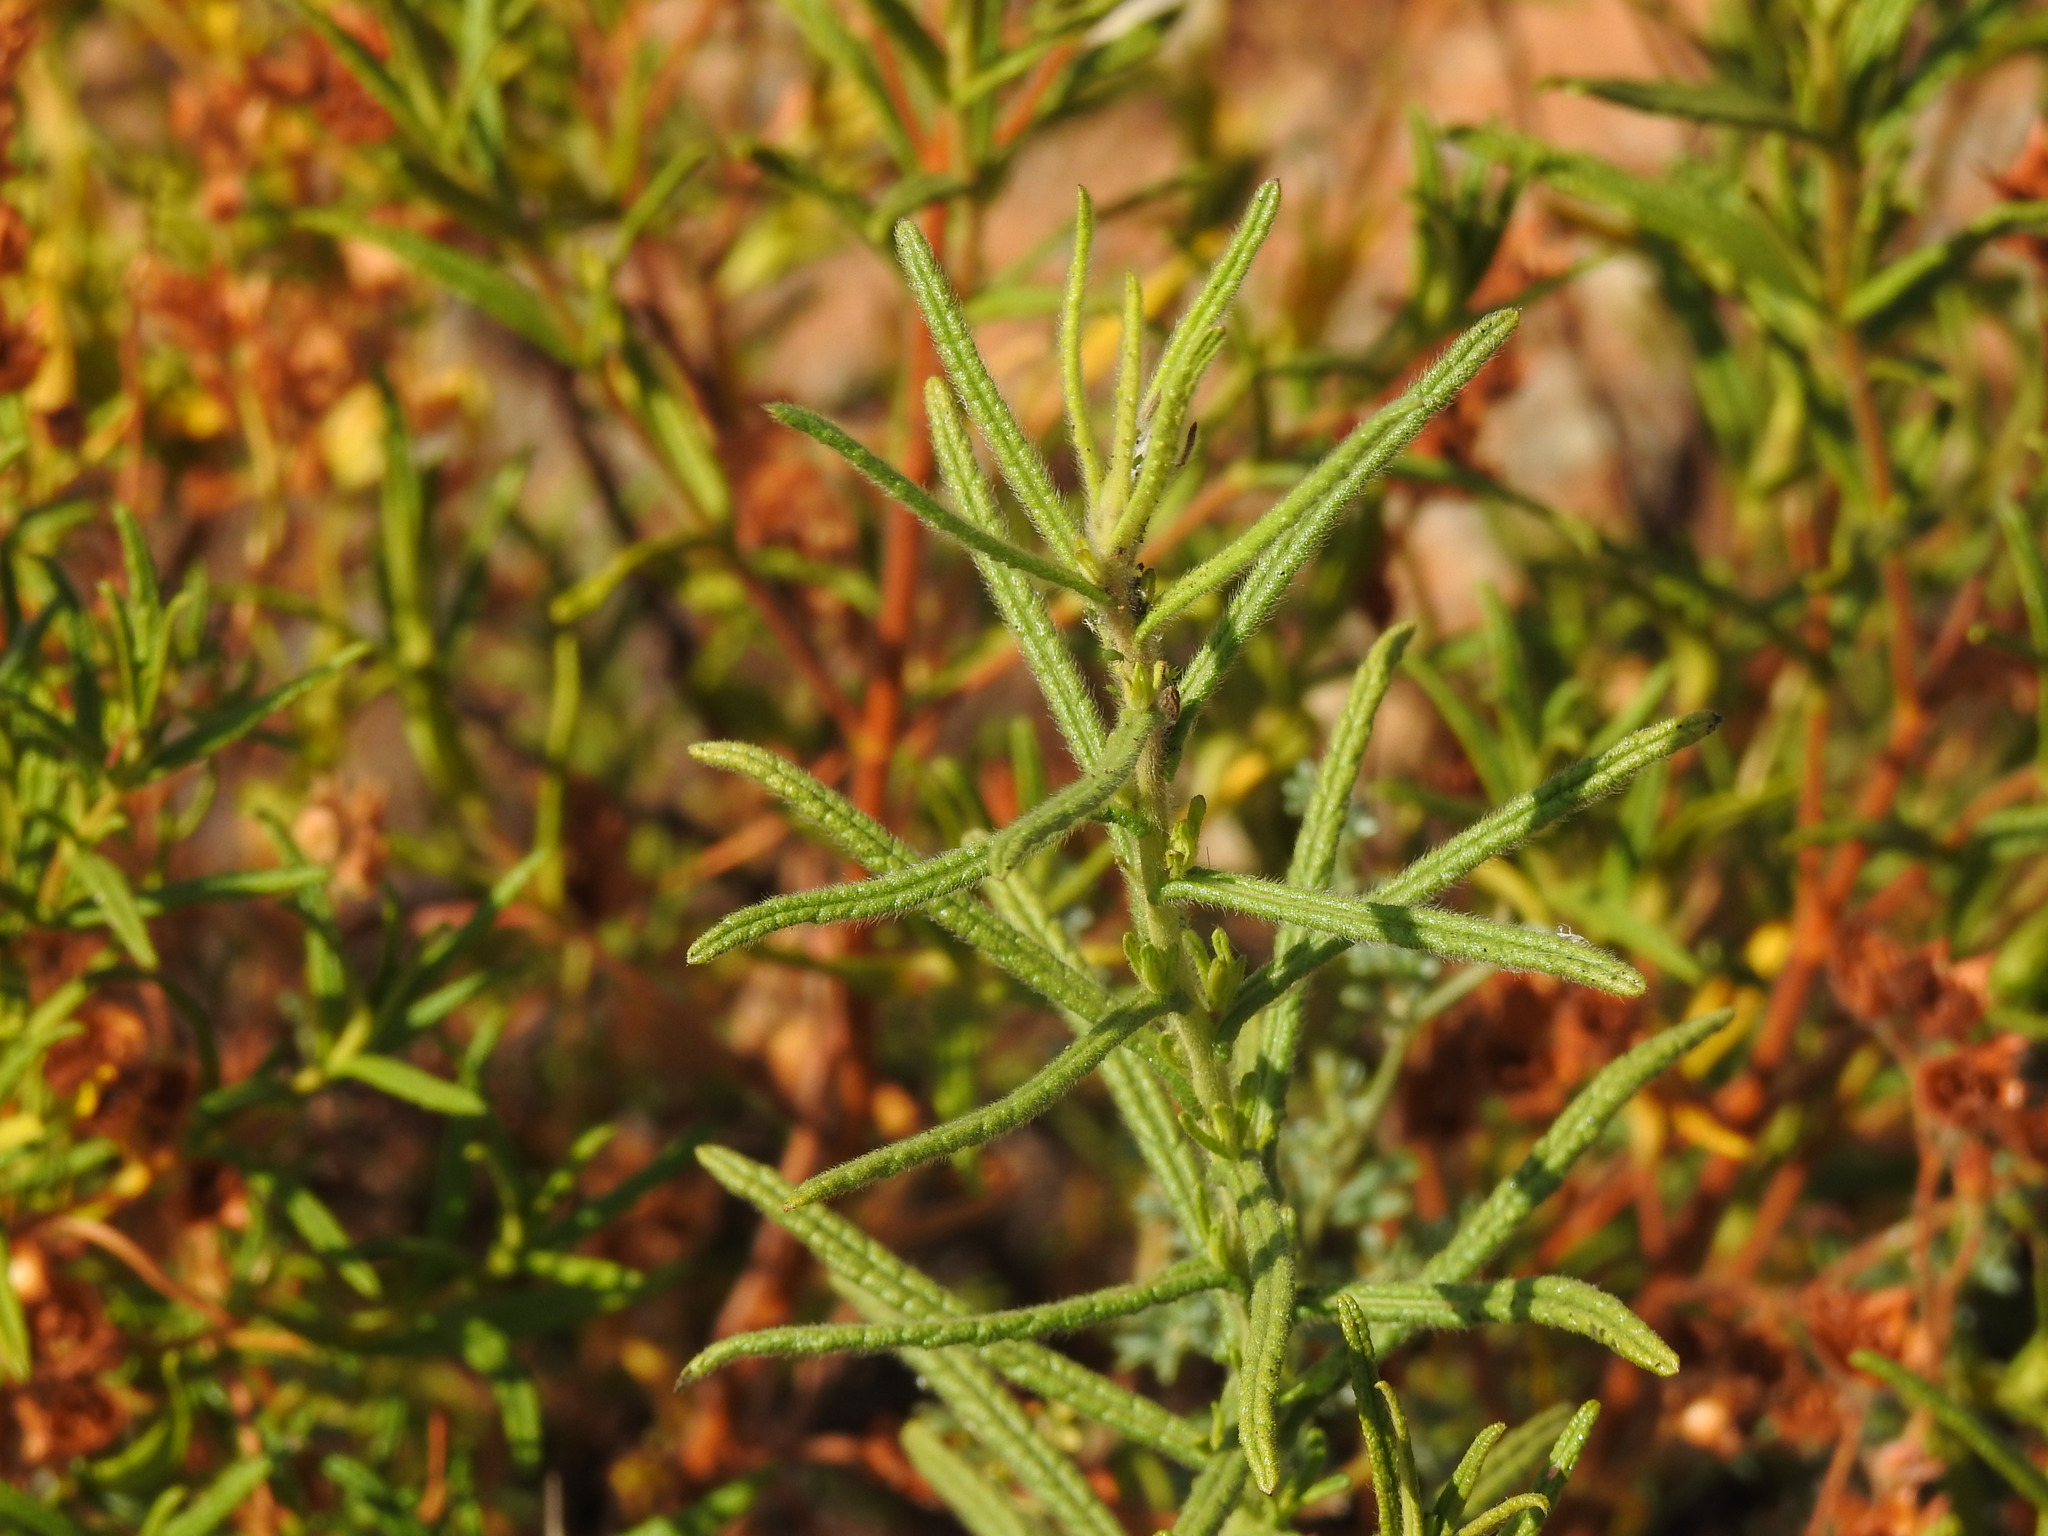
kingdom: Plantae
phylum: Tracheophyta
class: Magnoliopsida
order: Asterales
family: Asteraceae
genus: Dittrichia
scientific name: Dittrichia viscosa
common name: Woody fleabane
